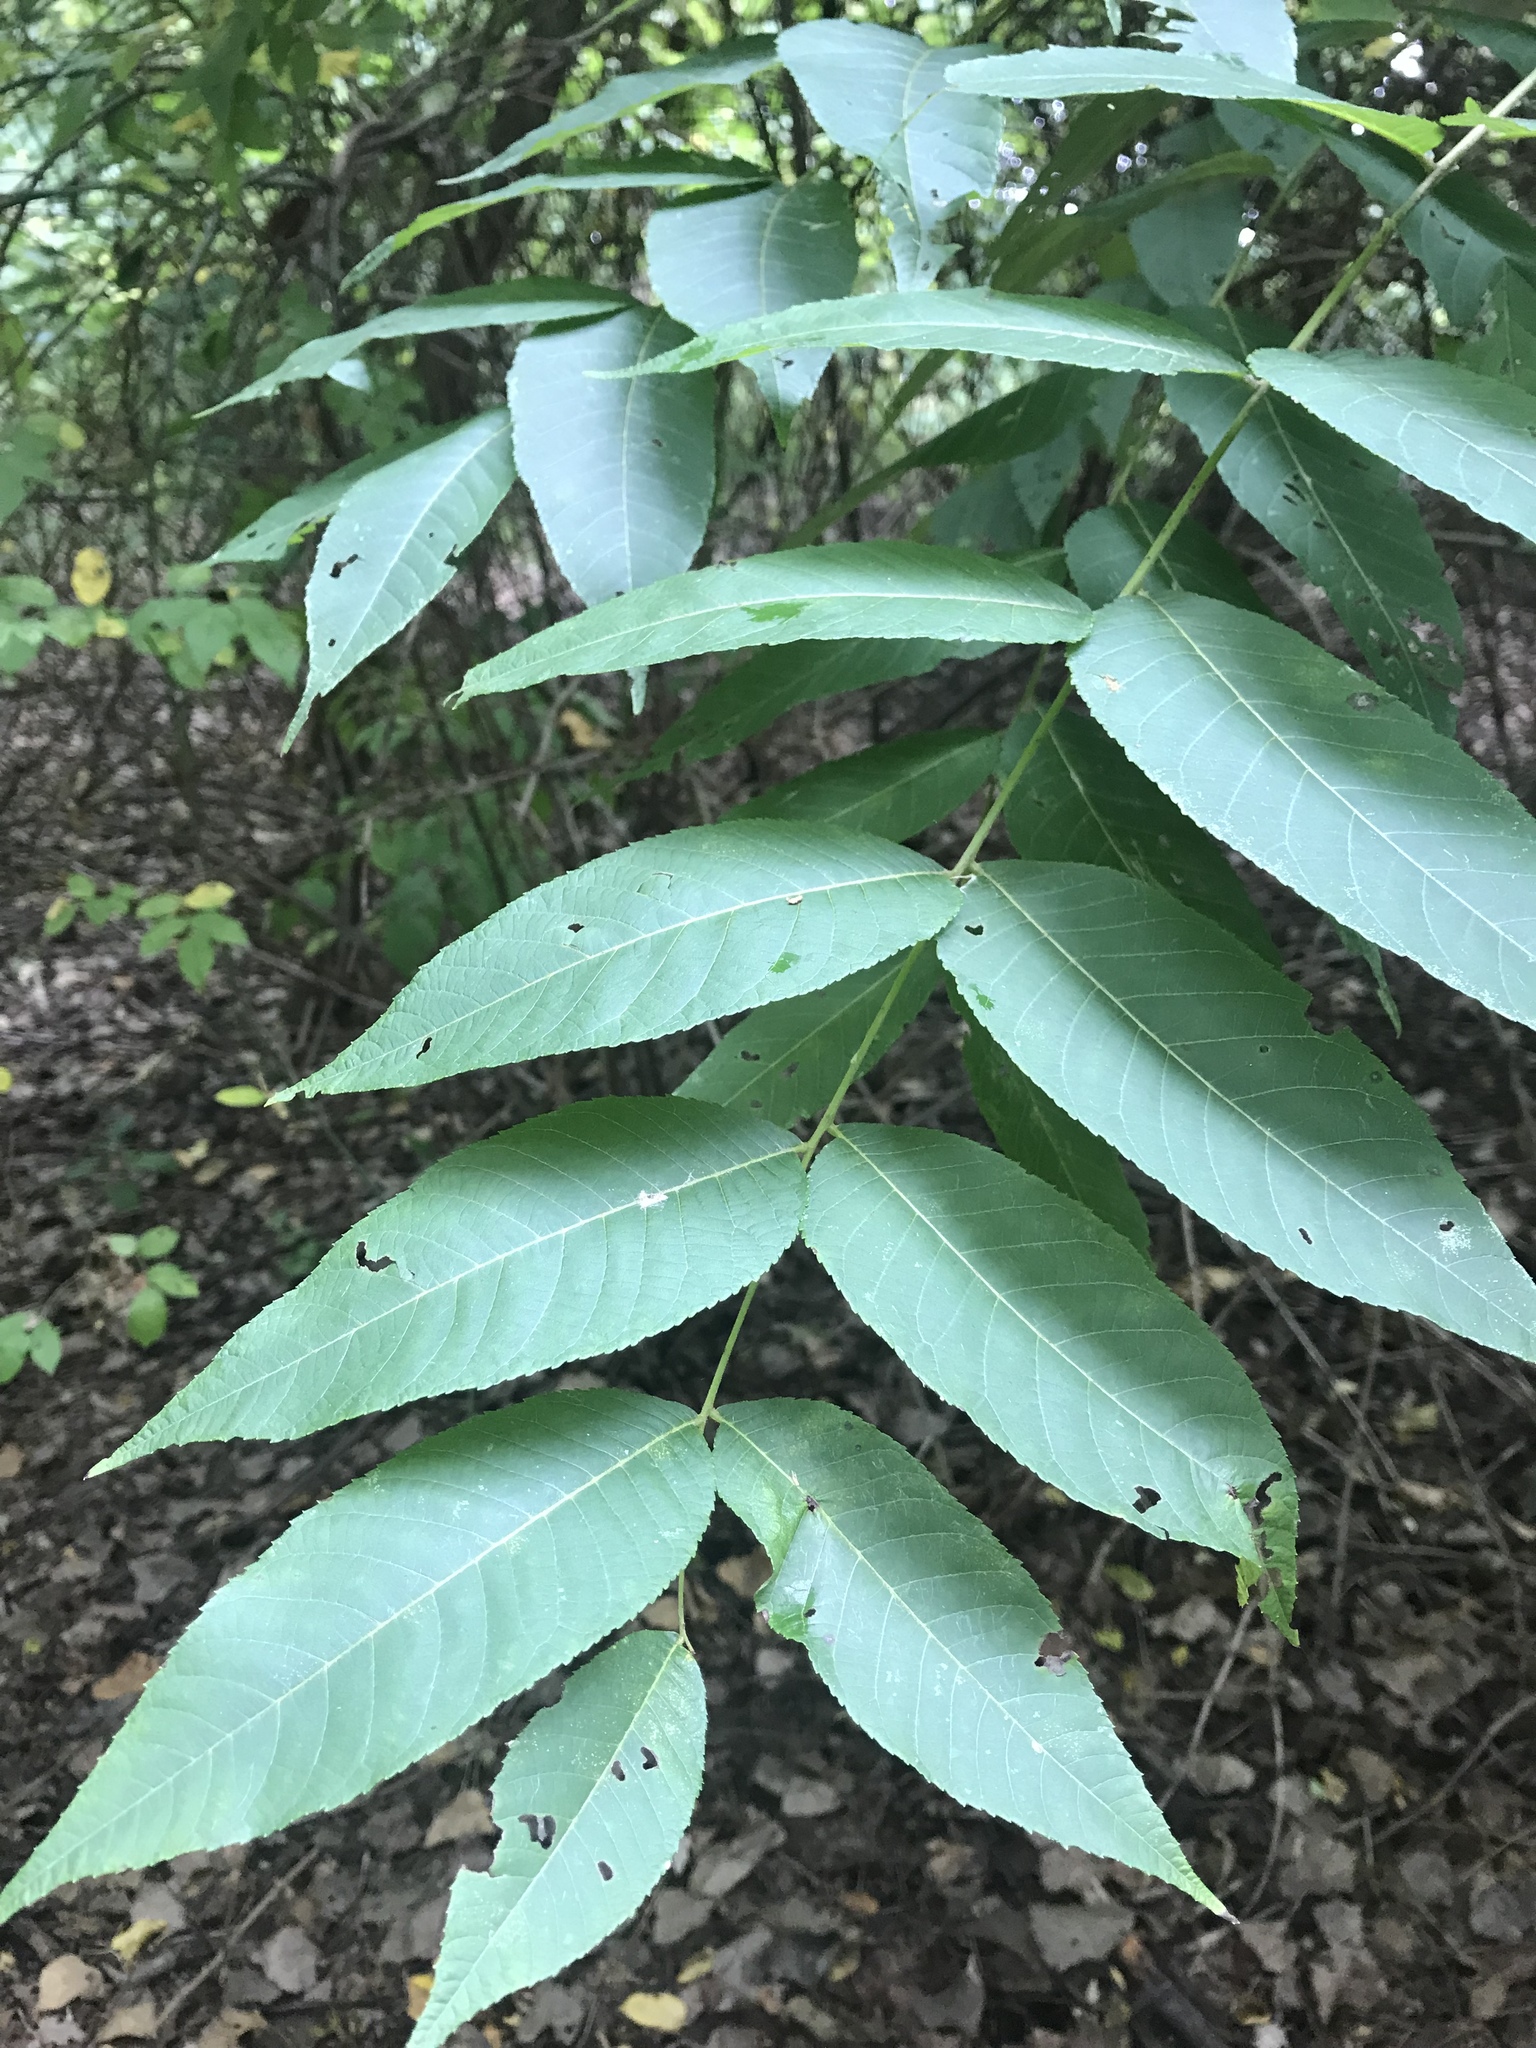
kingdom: Plantae
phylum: Tracheophyta
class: Magnoliopsida
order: Fagales
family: Juglandaceae
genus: Juglans
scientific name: Juglans nigra
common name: Black walnut
